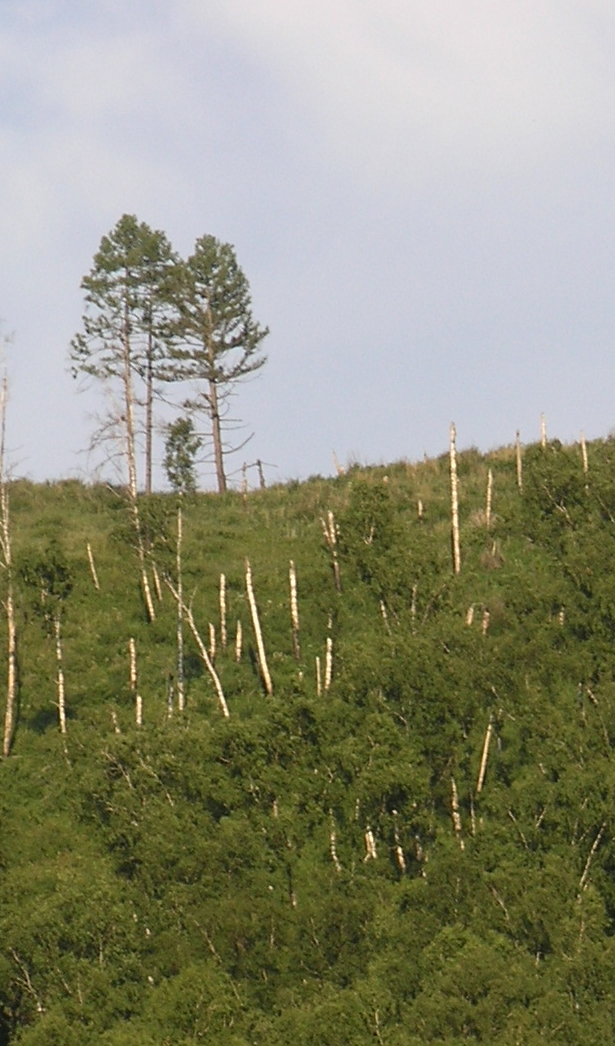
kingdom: Plantae
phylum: Tracheophyta
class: Pinopsida
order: Pinales
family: Pinaceae
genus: Pinus
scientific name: Pinus sylvestris
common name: Scots pine
